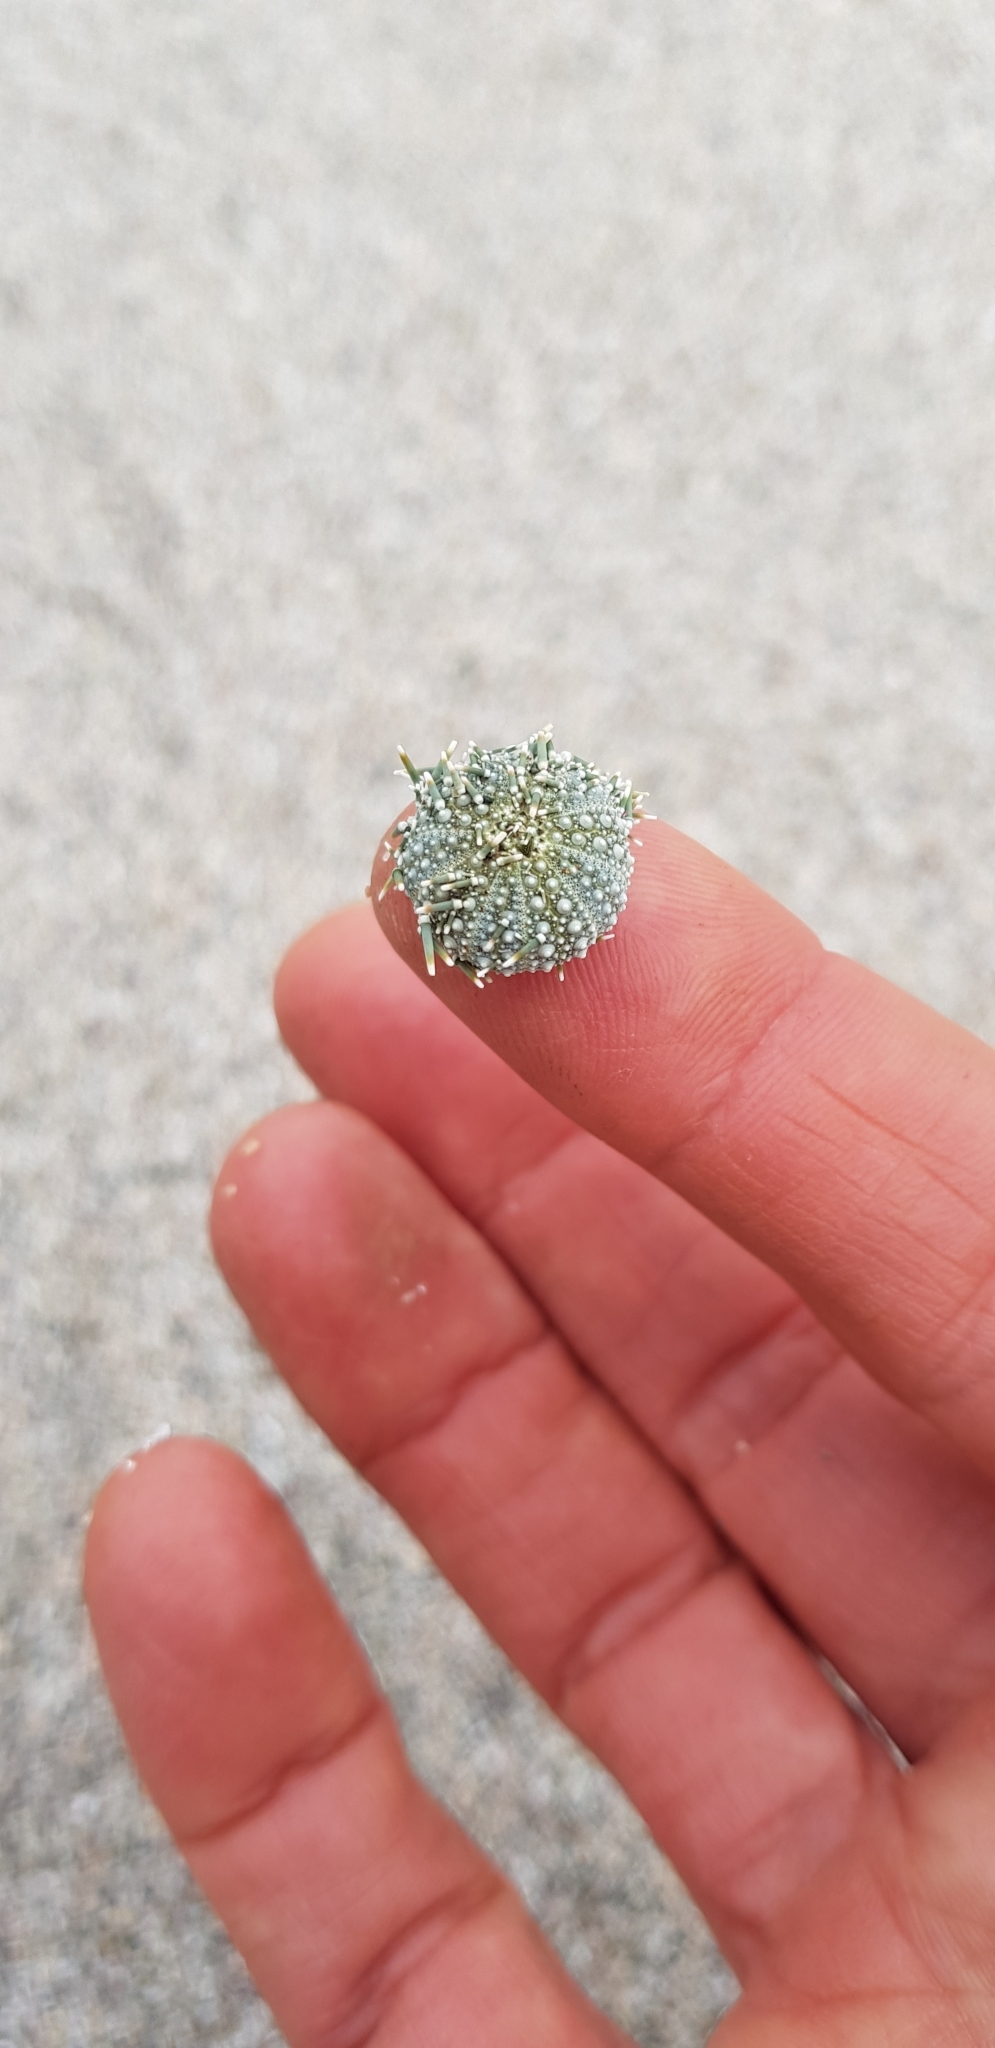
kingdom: Animalia
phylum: Echinodermata
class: Echinoidea
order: Camarodonta
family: Echinometridae
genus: Evechinus
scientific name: Evechinus chloroticus
